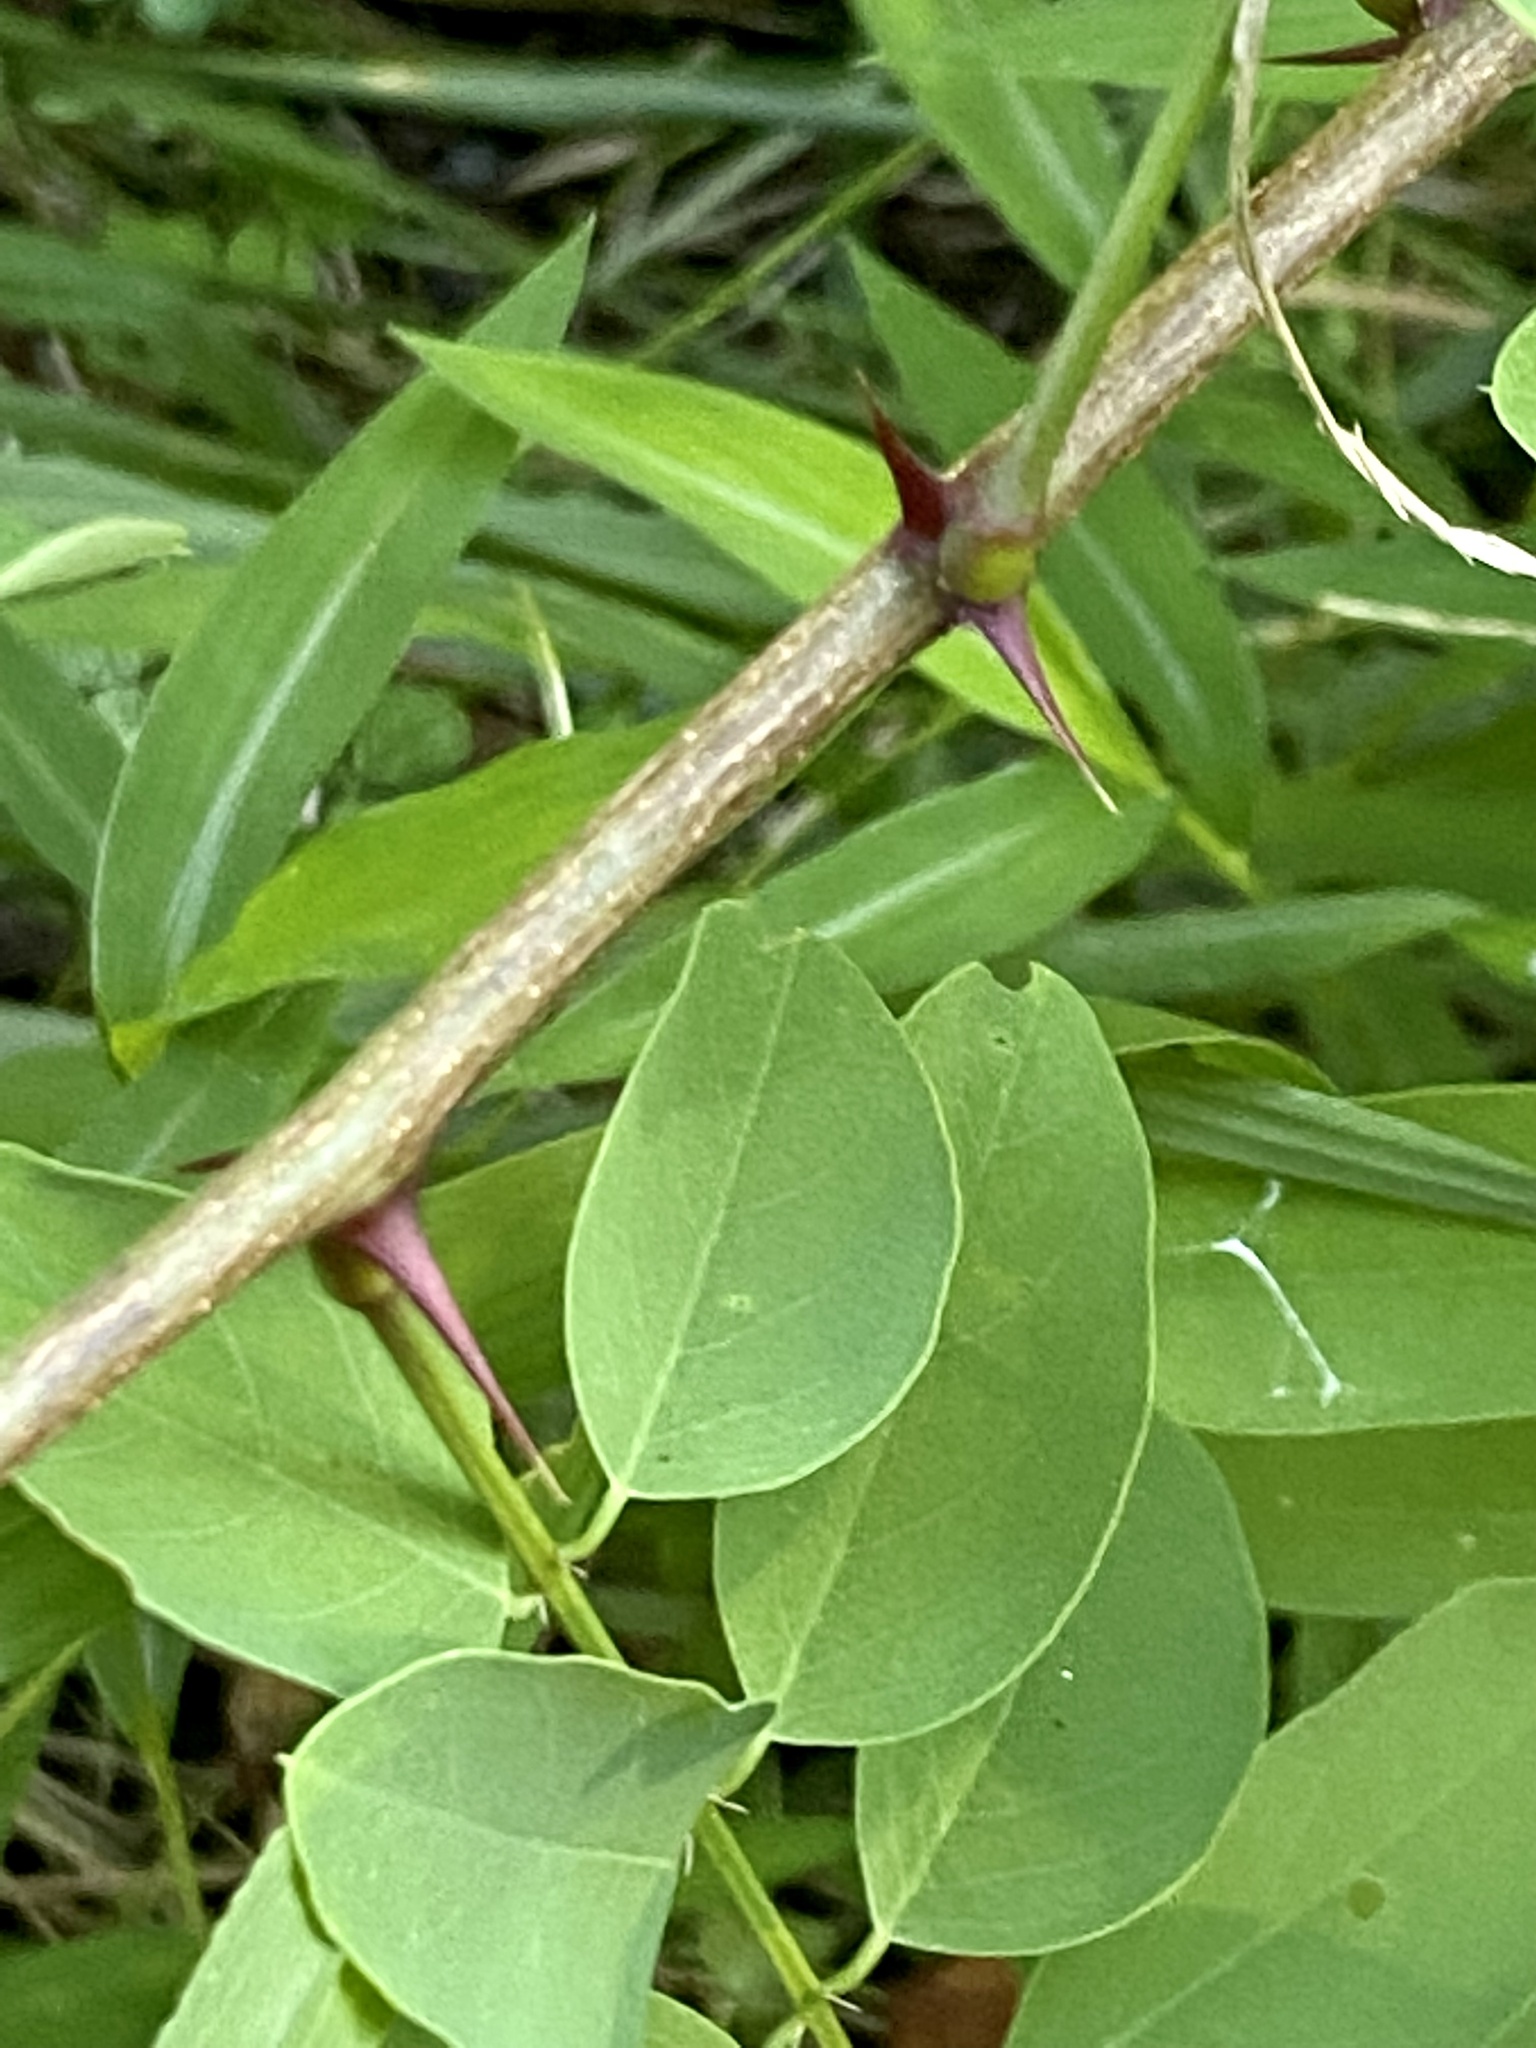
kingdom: Plantae
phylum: Tracheophyta
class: Magnoliopsida
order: Fabales
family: Fabaceae
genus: Robinia
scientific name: Robinia pseudoacacia
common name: Black locust
